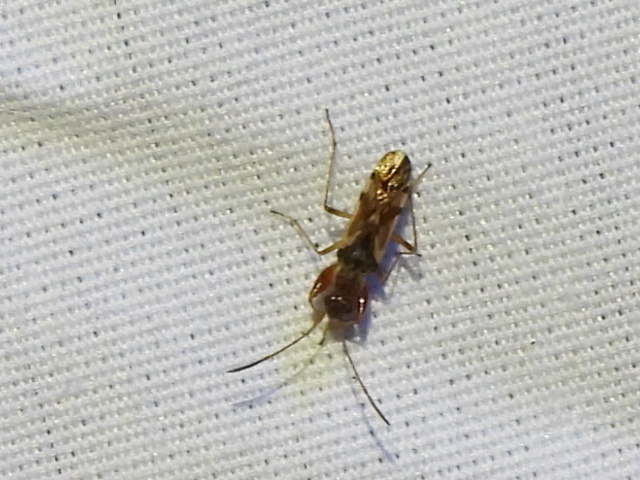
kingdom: Animalia
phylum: Arthropoda
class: Insecta
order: Hemiptera
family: Rhyparochromidae
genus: Neopamera
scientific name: Neopamera bilobata
